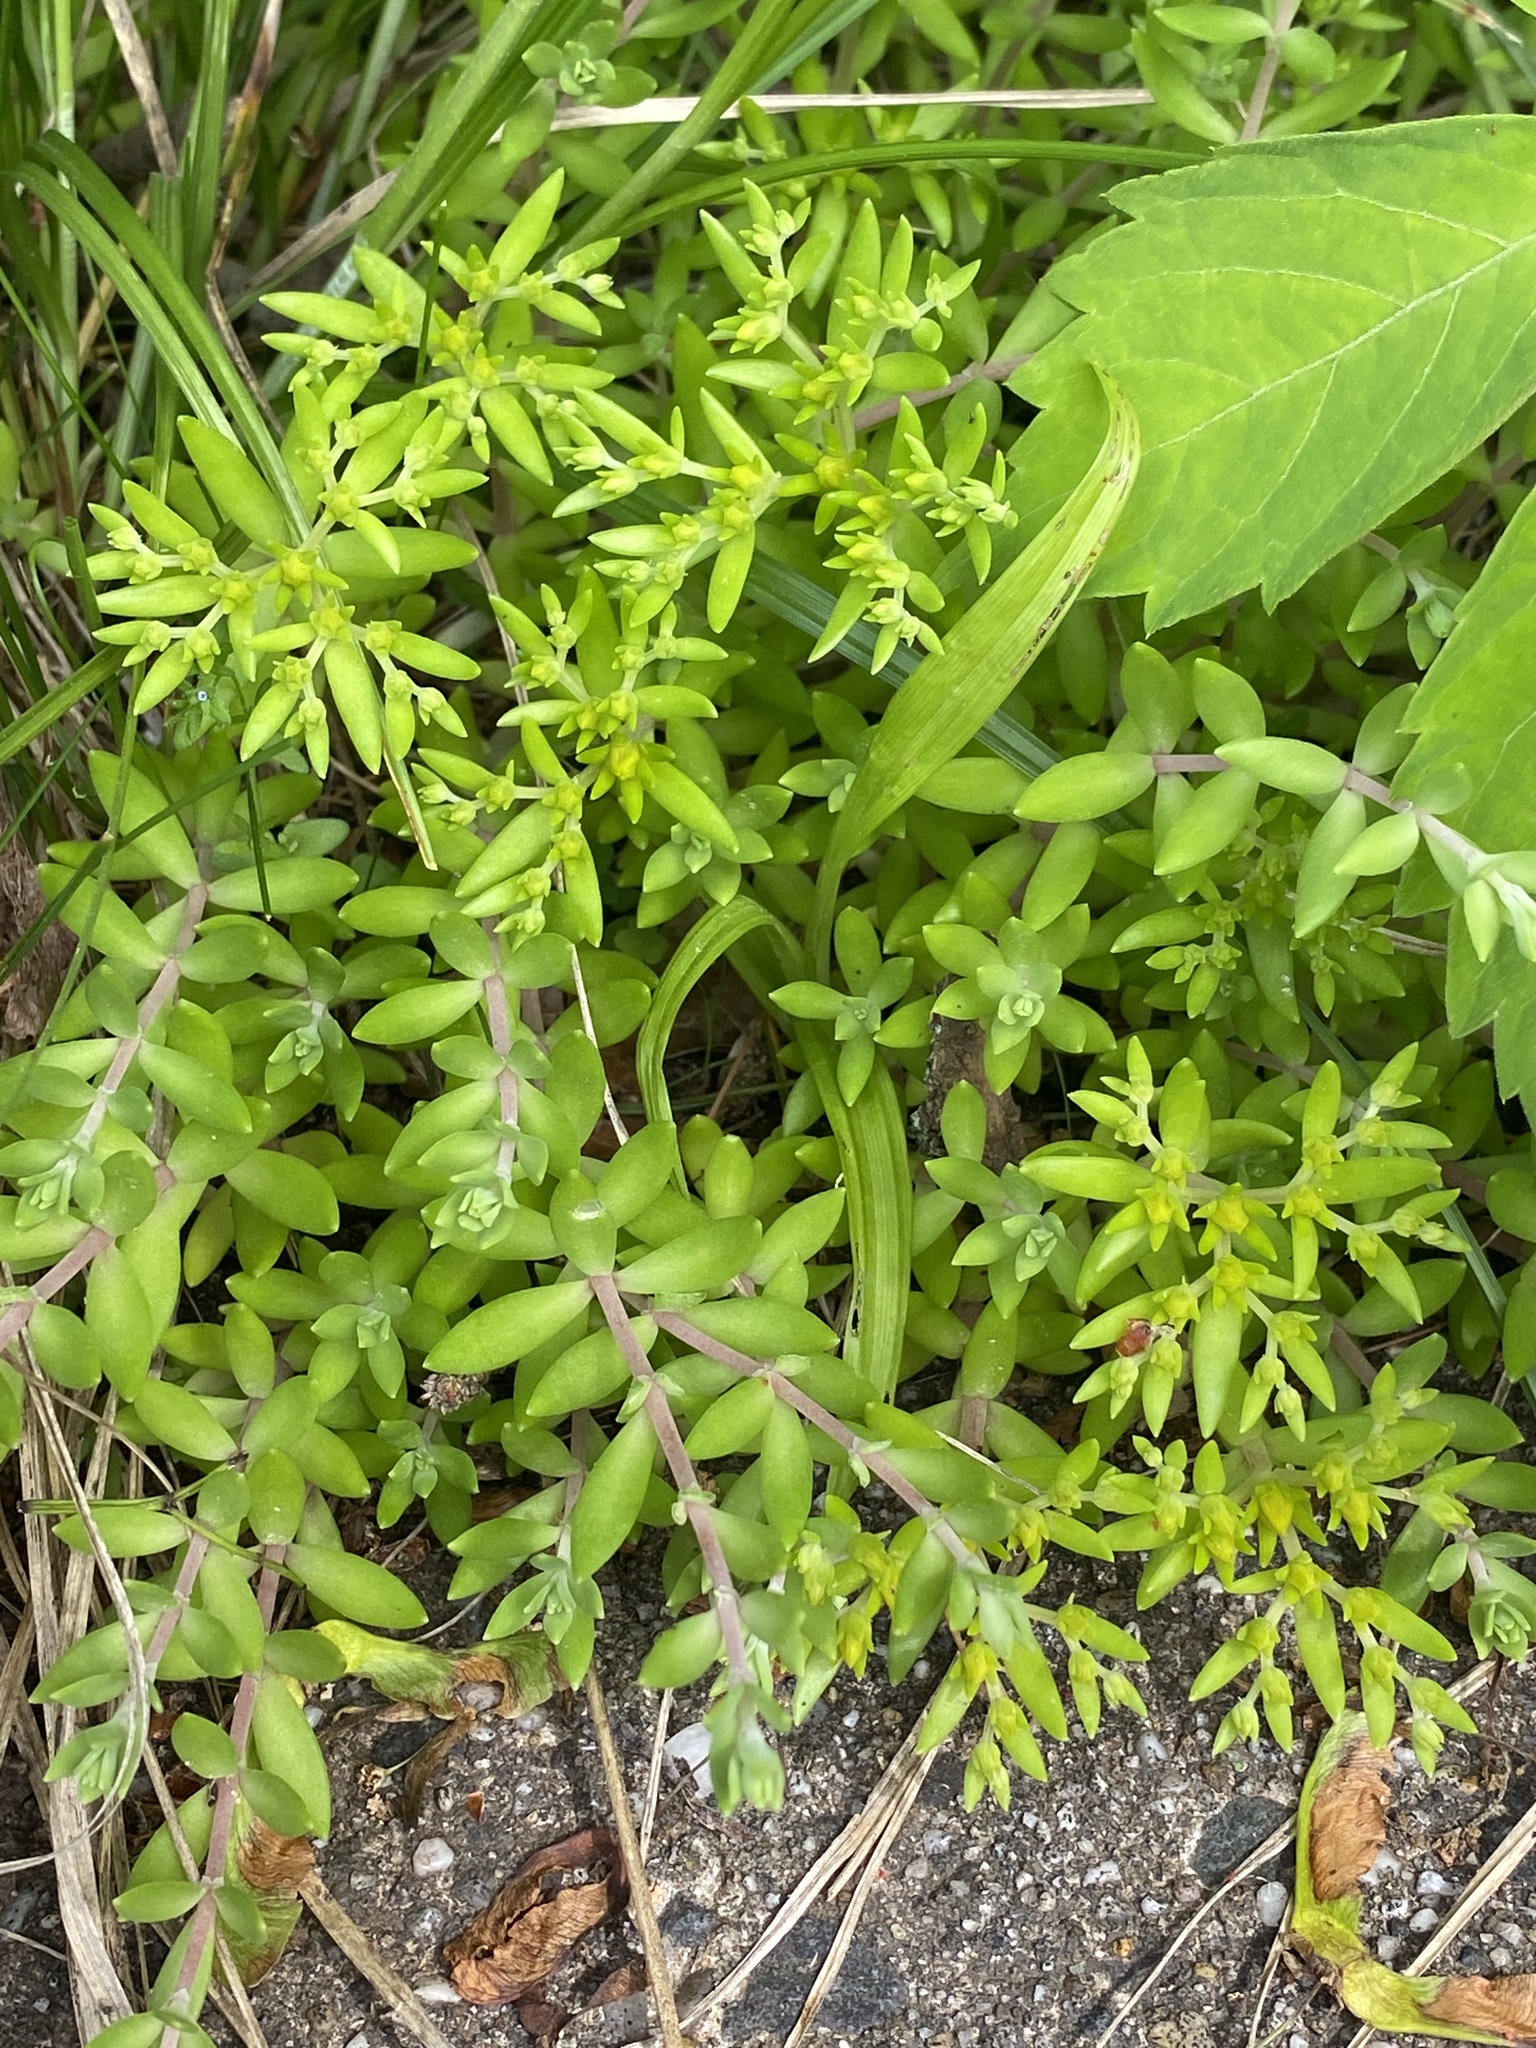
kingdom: Plantae
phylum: Tracheophyta
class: Magnoliopsida
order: Saxifragales
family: Crassulaceae
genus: Sedum
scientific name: Sedum sarmentosum
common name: Stringy stonecrop
